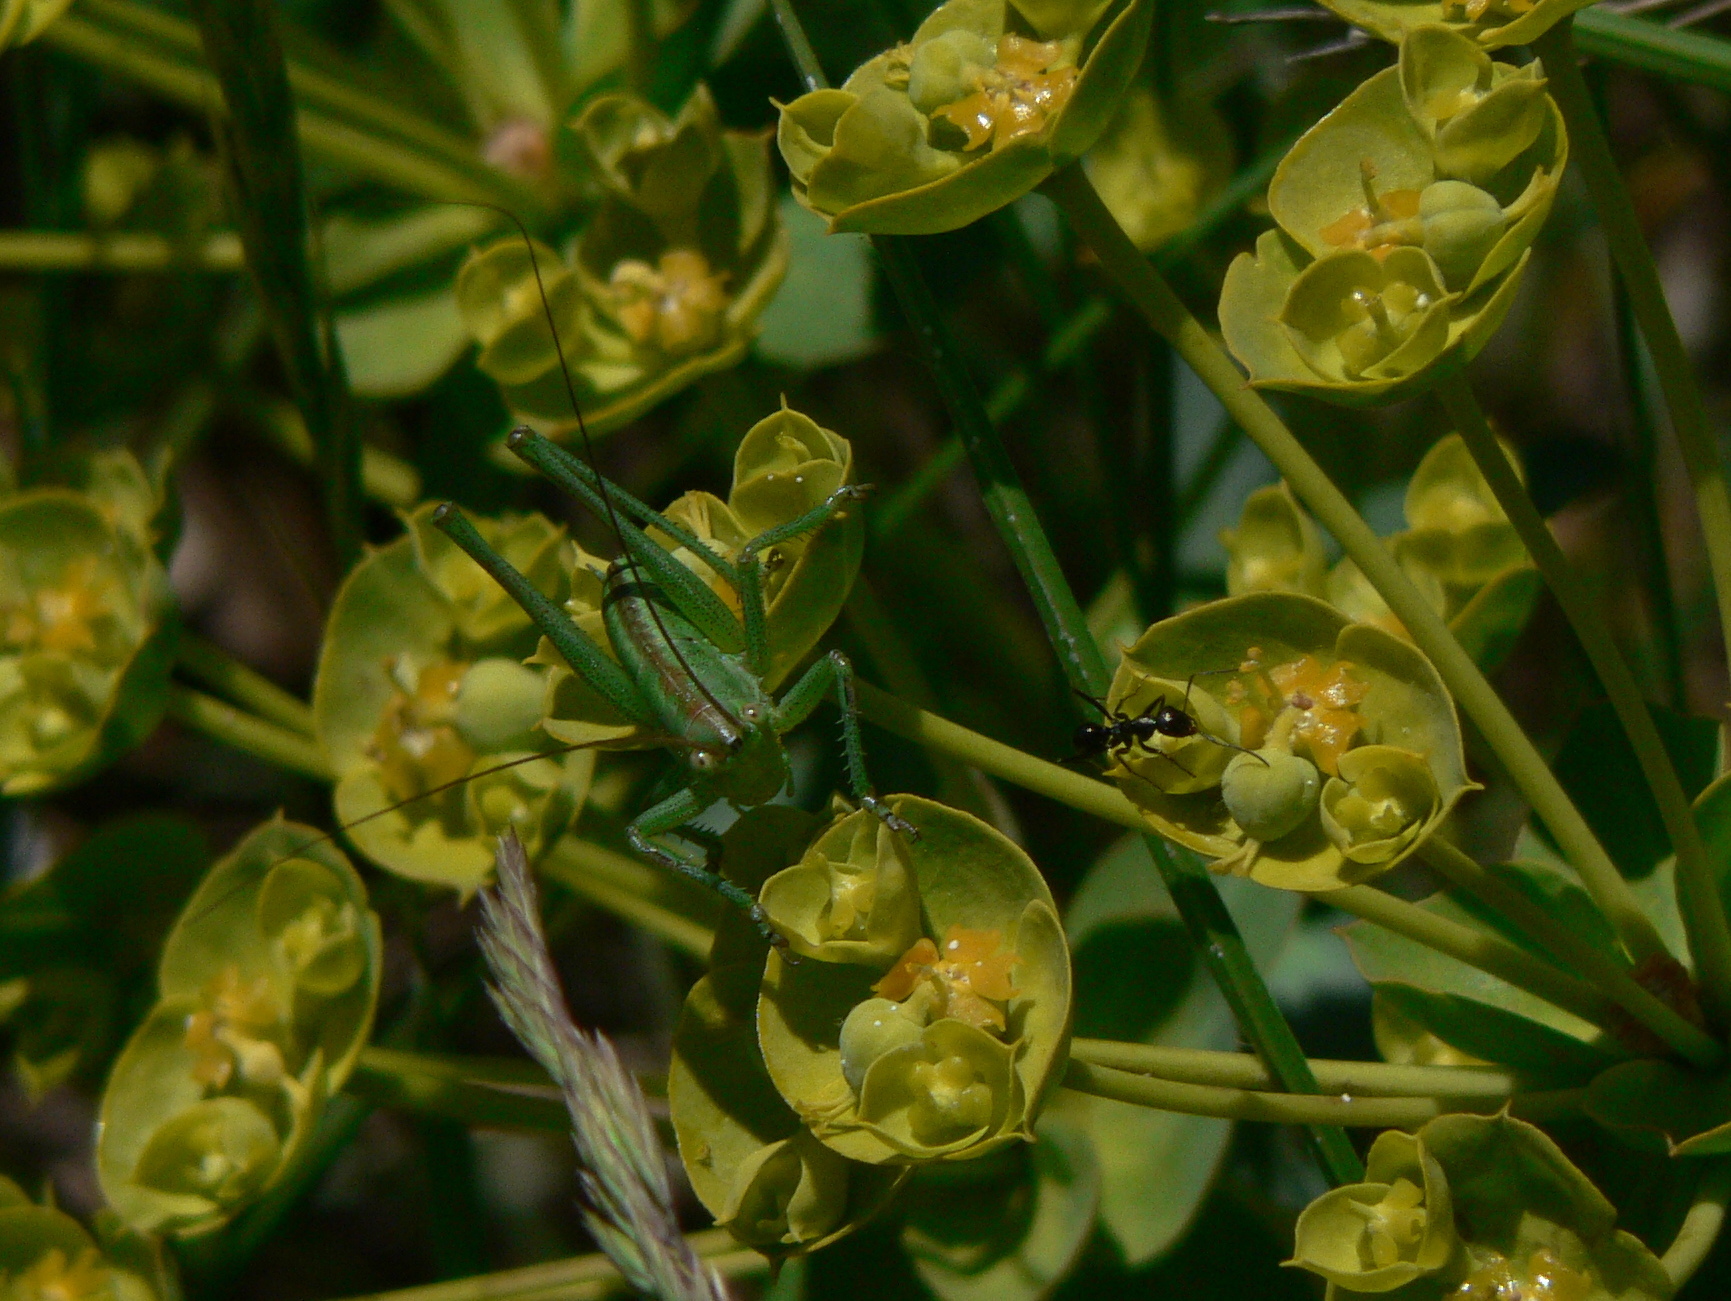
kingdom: Animalia
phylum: Arthropoda
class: Insecta
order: Orthoptera
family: Tettigoniidae
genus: Tettigonia
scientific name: Tettigonia viridissima
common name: Great green bush-cricket
